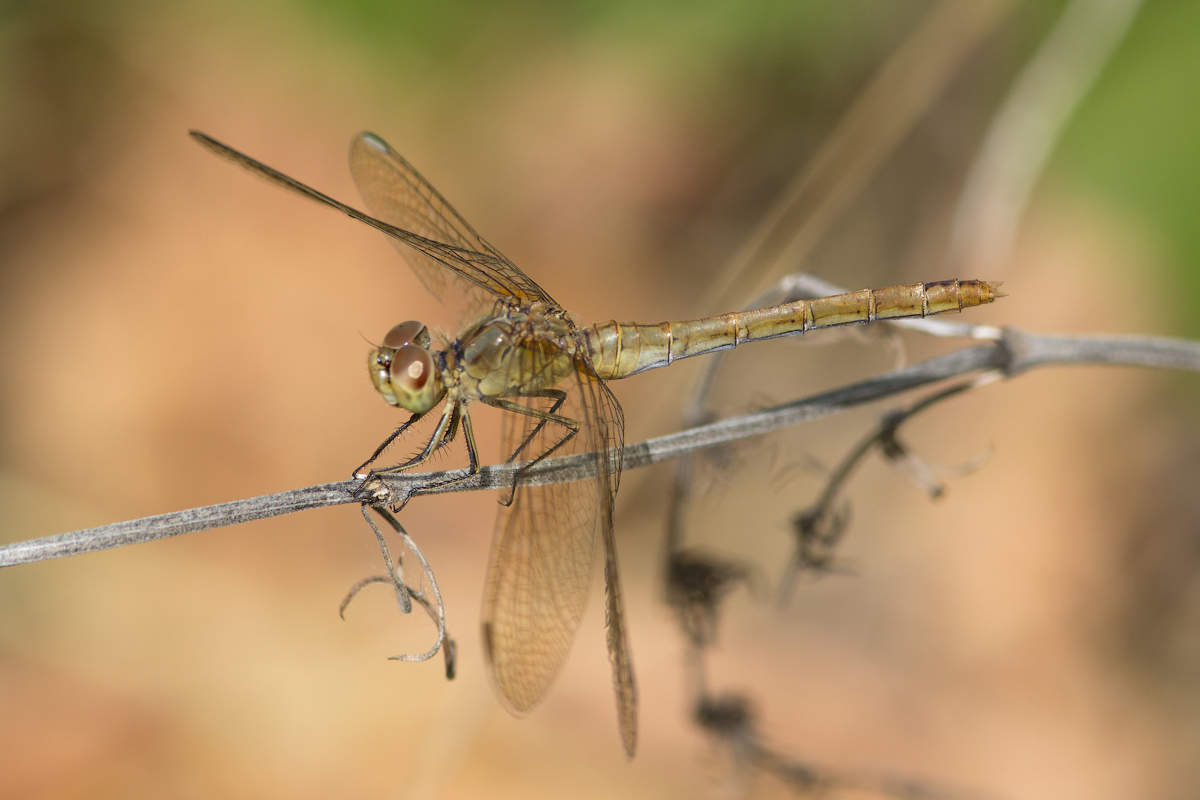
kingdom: Animalia
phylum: Arthropoda
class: Insecta
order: Odonata
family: Libellulidae
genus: Sympetrum
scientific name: Sympetrum meridionale
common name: Southern darter
